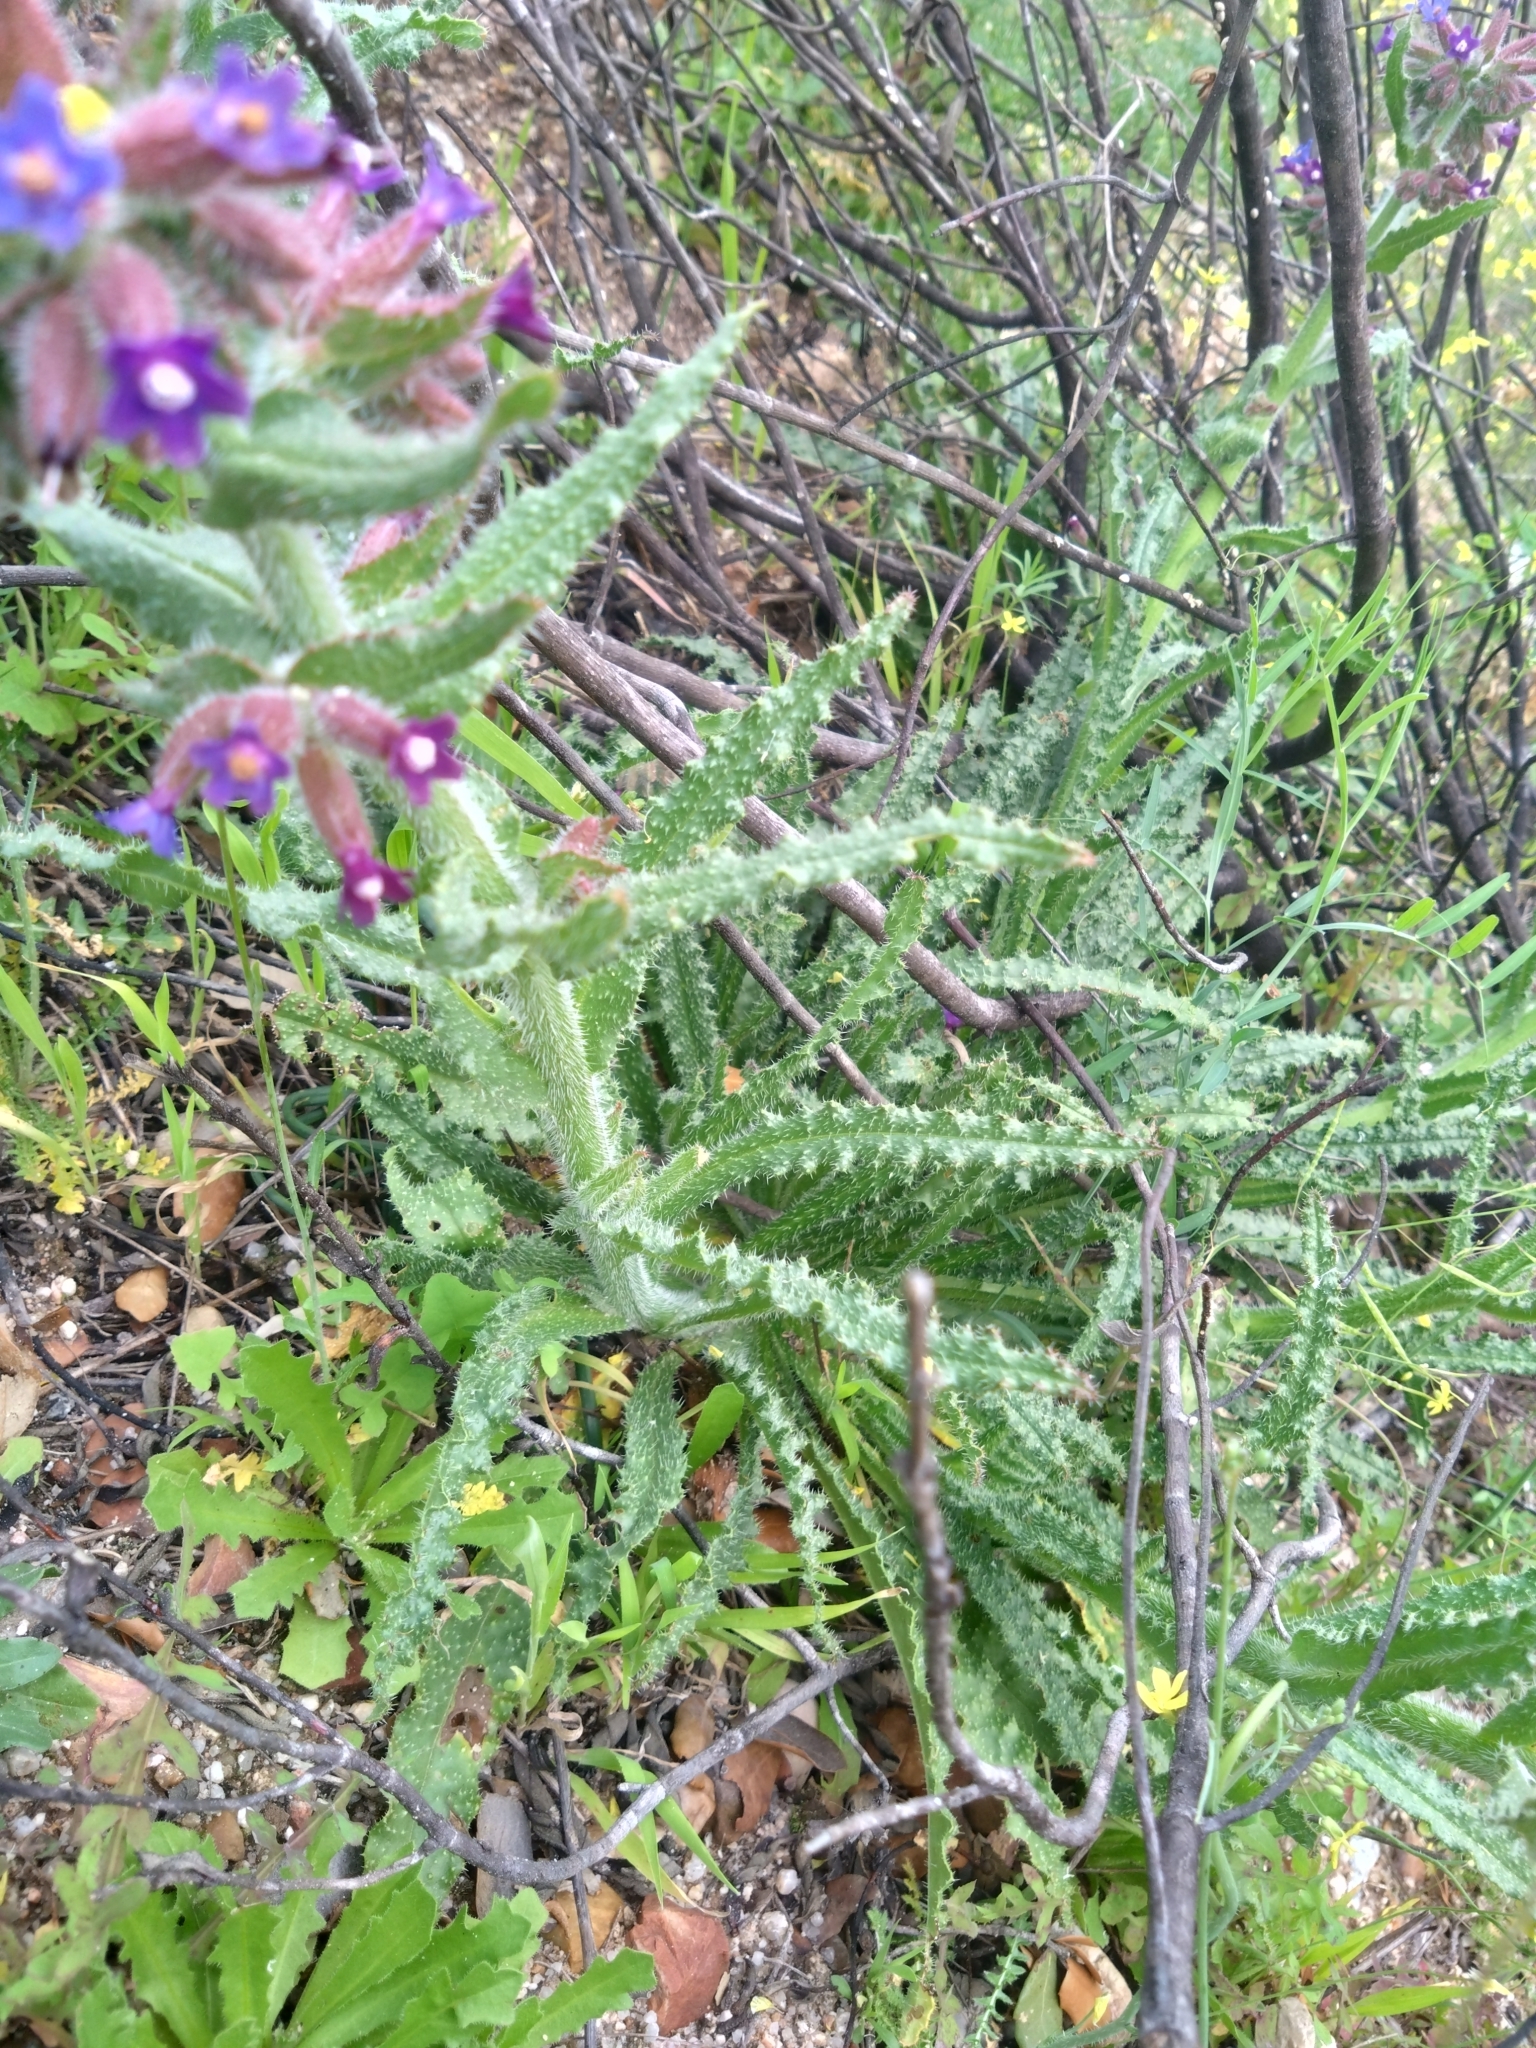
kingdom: Plantae
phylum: Tracheophyta
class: Magnoliopsida
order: Boraginales
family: Boraginaceae
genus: Anchusa
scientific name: Anchusa undulata
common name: Undulate alkanet
